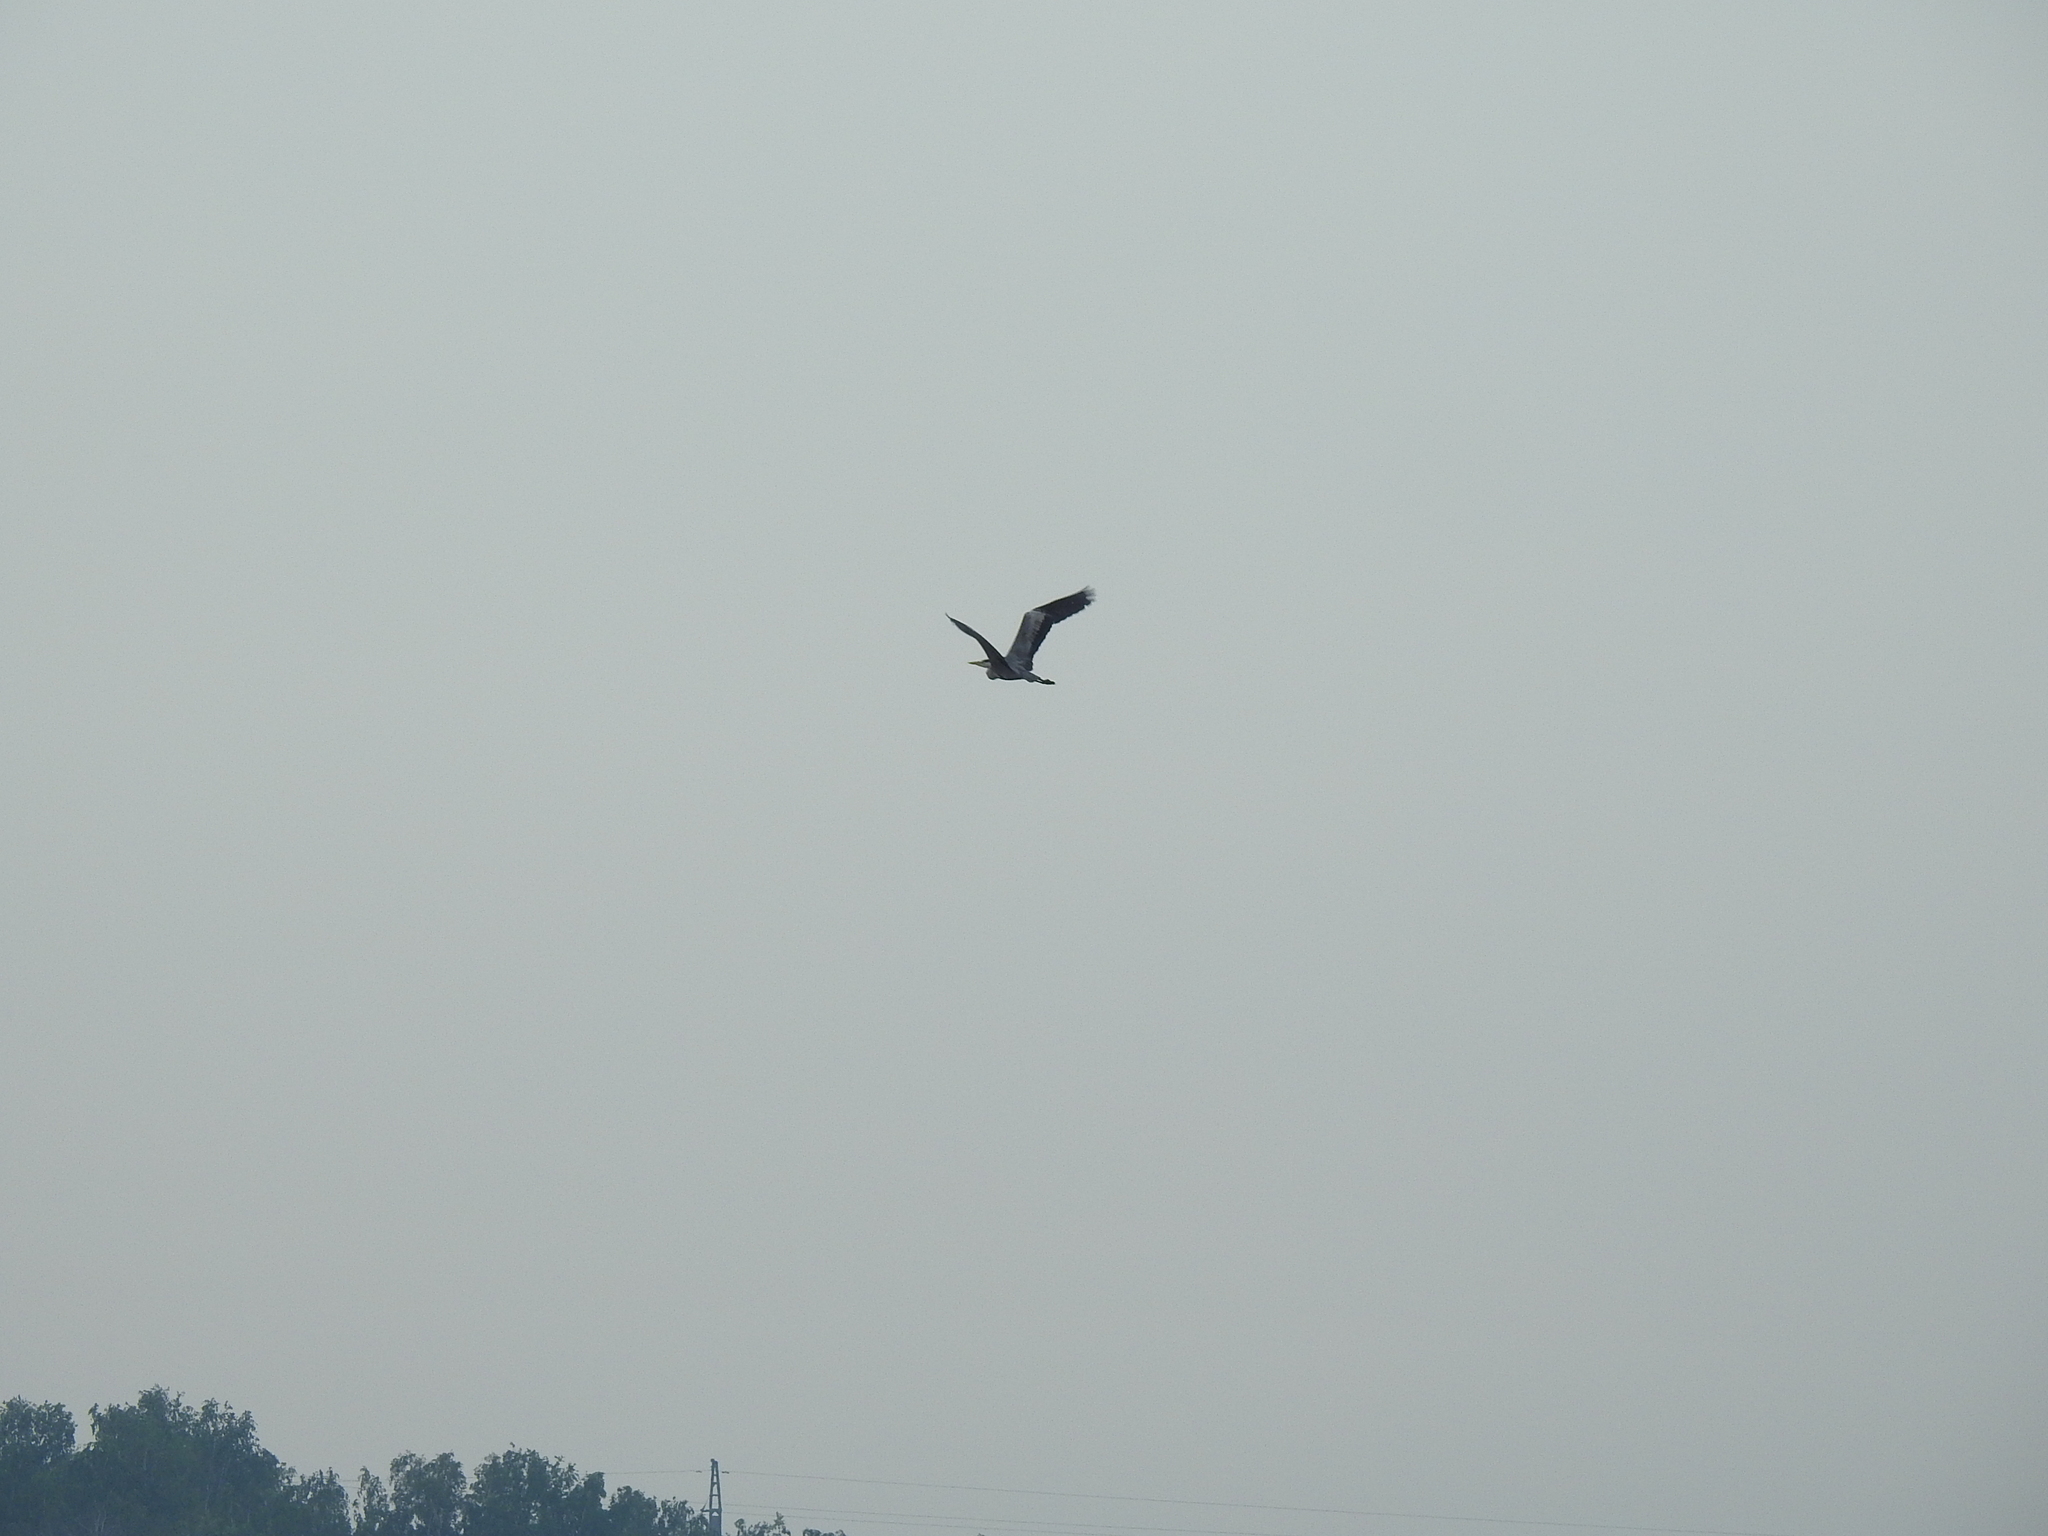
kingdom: Animalia
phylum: Chordata
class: Aves
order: Pelecaniformes
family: Ardeidae
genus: Ardea
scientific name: Ardea cinerea
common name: Grey heron
